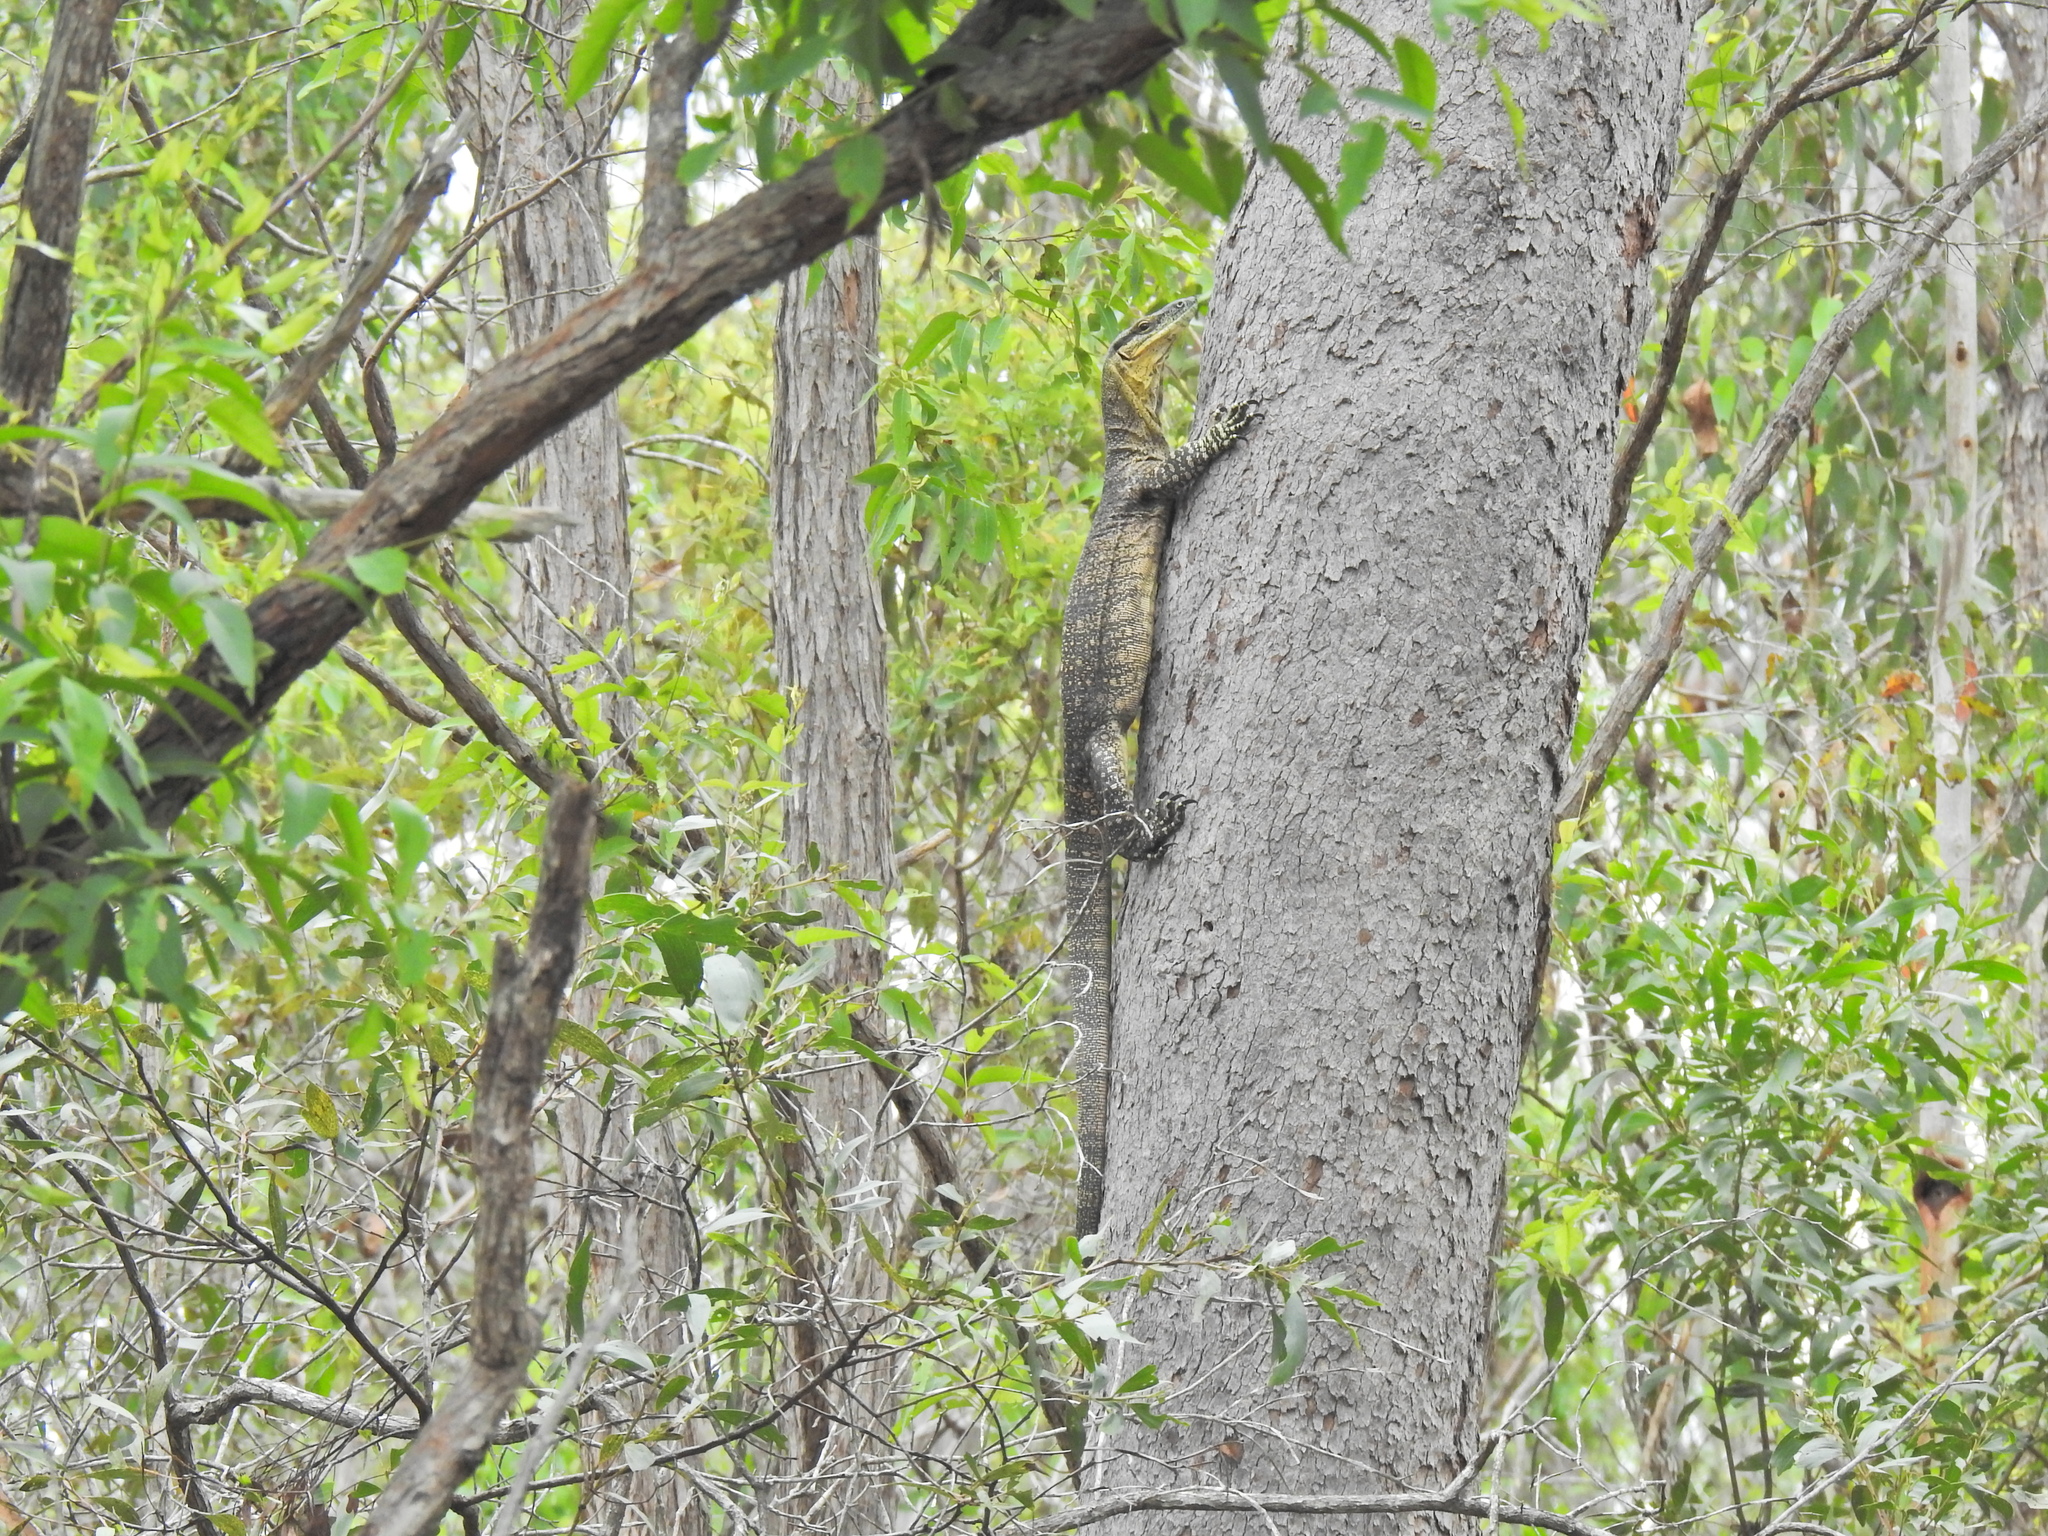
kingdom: Animalia
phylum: Chordata
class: Squamata
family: Varanidae
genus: Varanus
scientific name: Varanus varius
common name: Lace monitor
